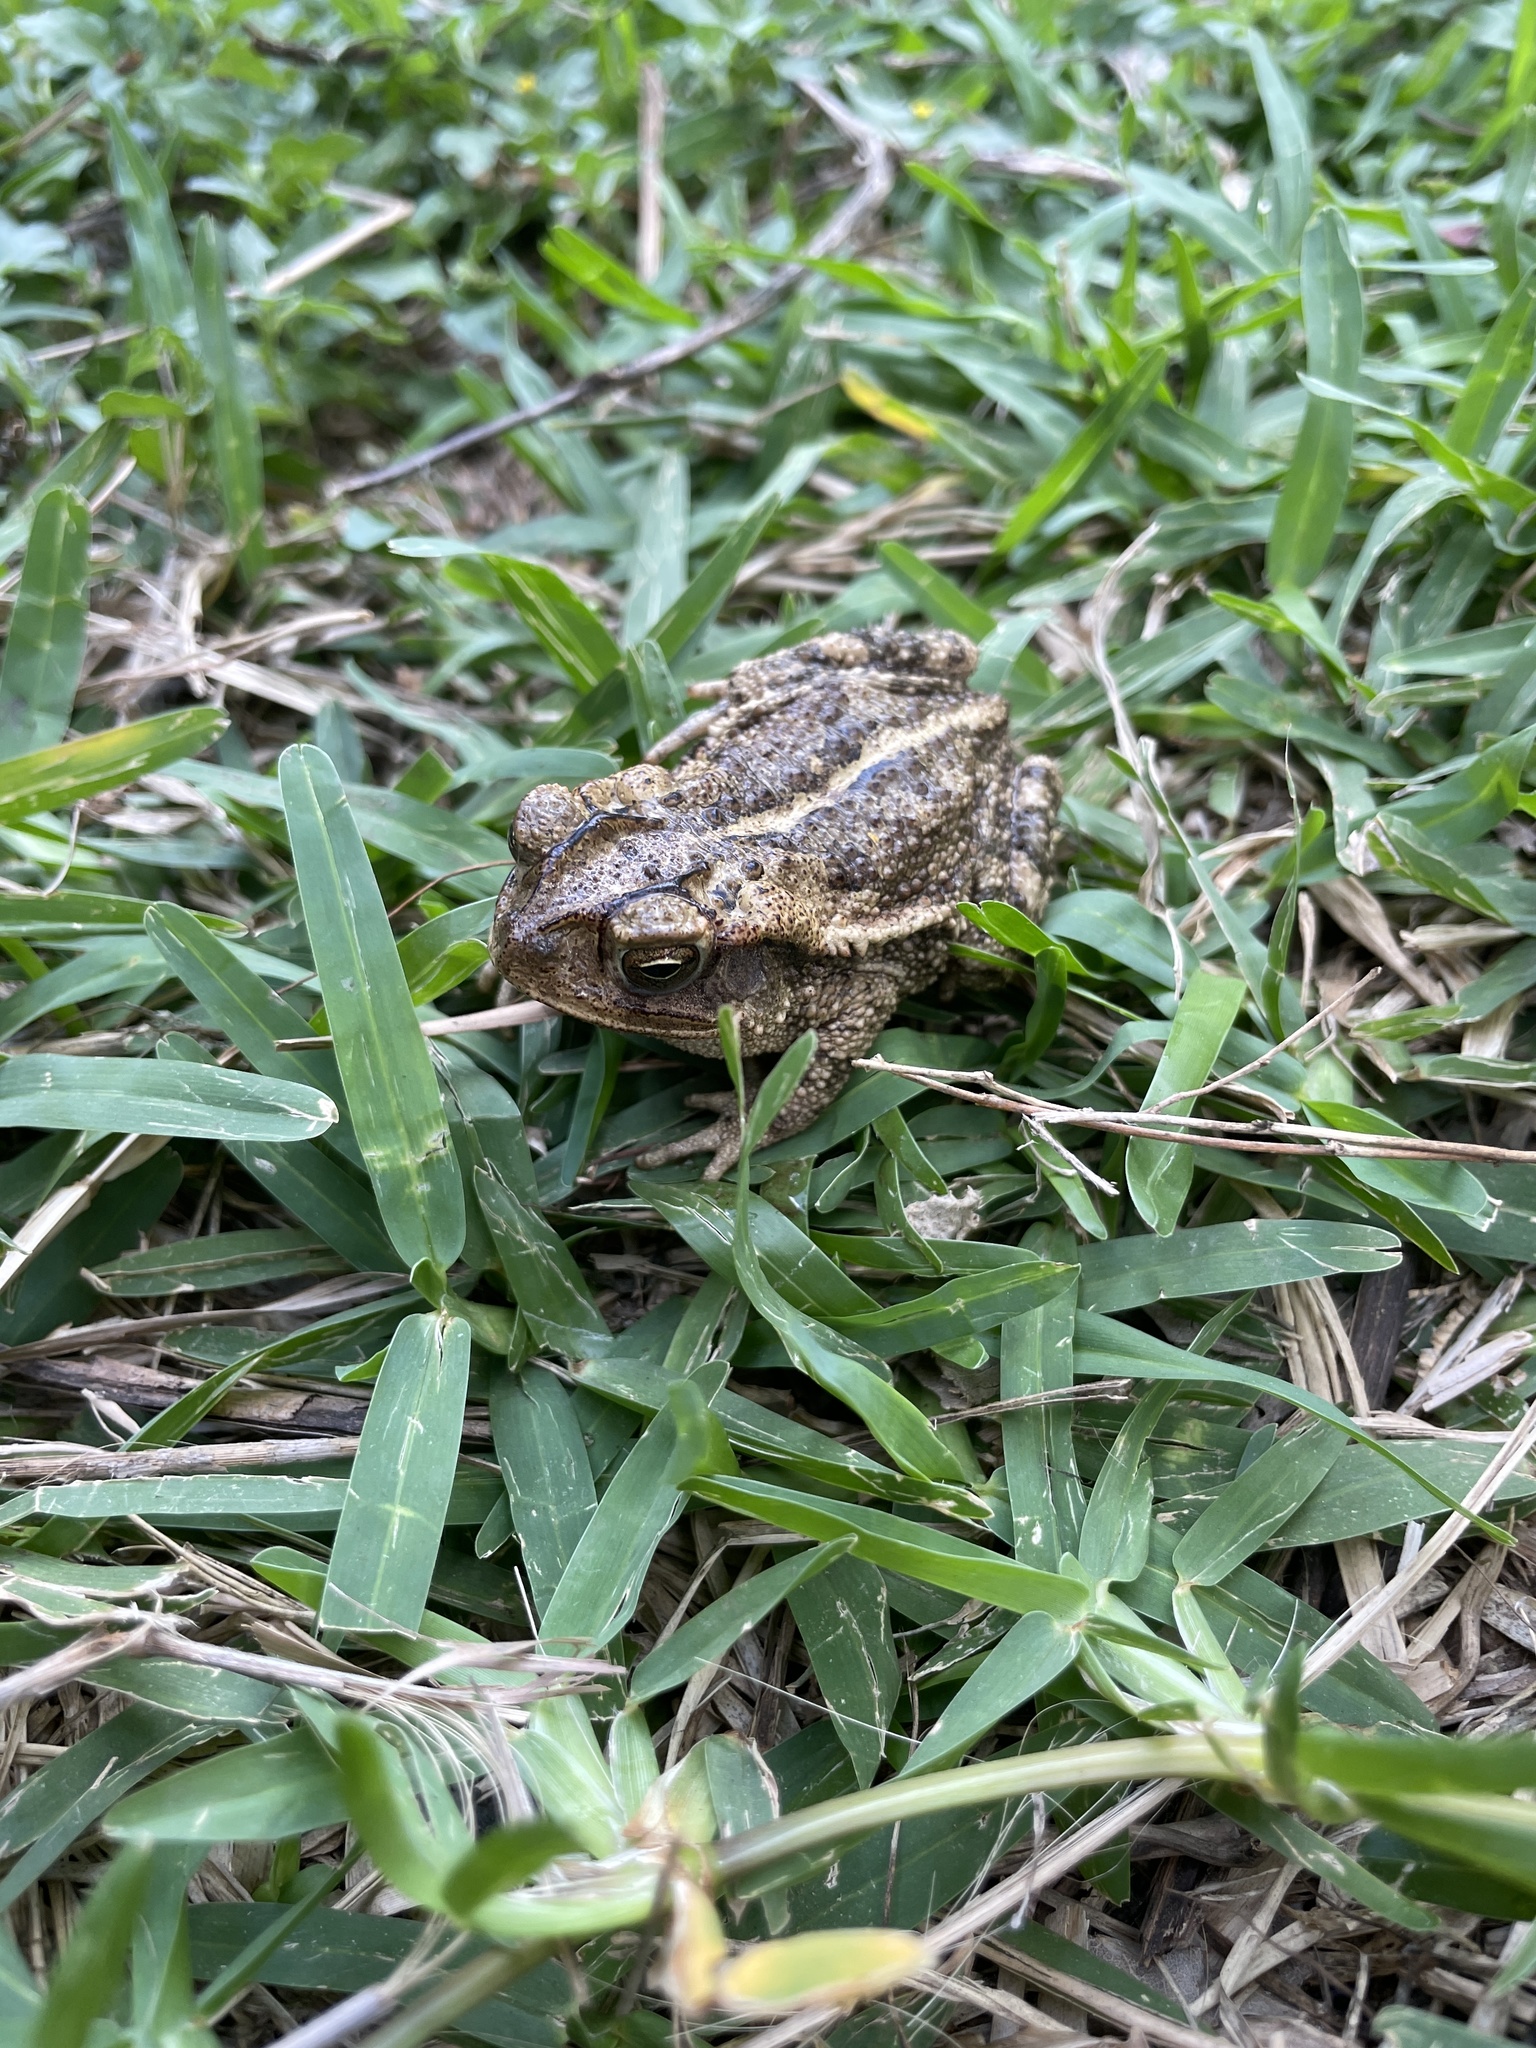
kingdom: Animalia
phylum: Chordata
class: Amphibia
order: Anura
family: Bufonidae
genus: Incilius
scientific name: Incilius nebulifer
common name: Gulf coast toad
